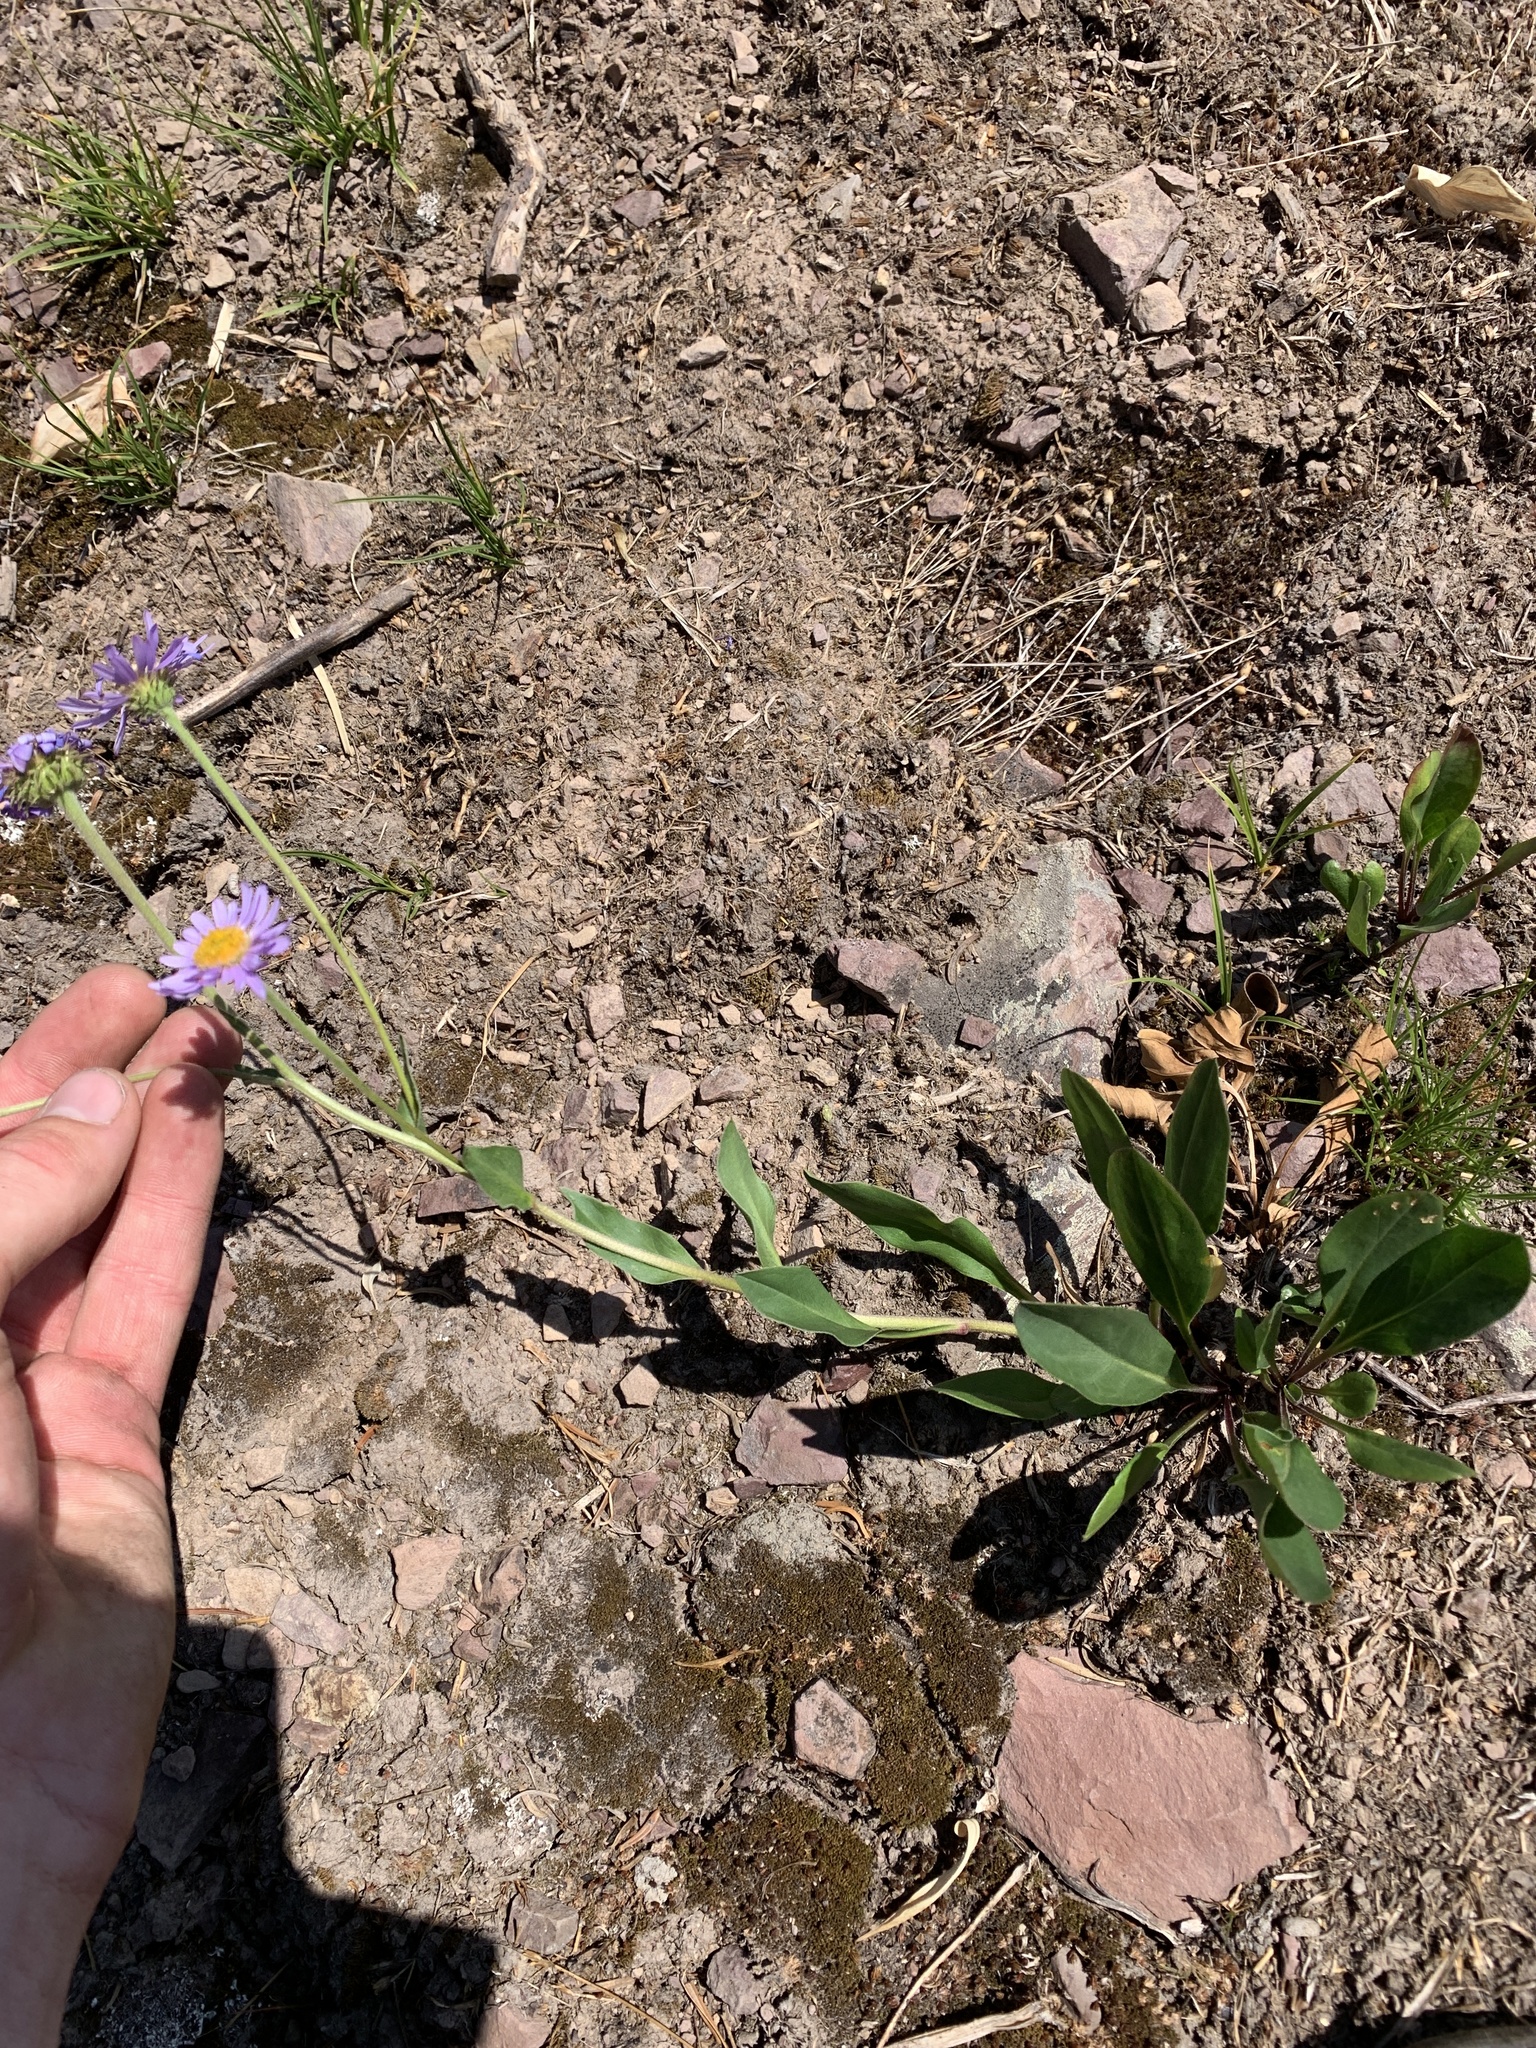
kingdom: Plantae
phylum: Tracheophyta
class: Magnoliopsida
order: Asterales
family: Asteraceae
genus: Erigeron
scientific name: Erigeron glacialis
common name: Subalpine fleabane
